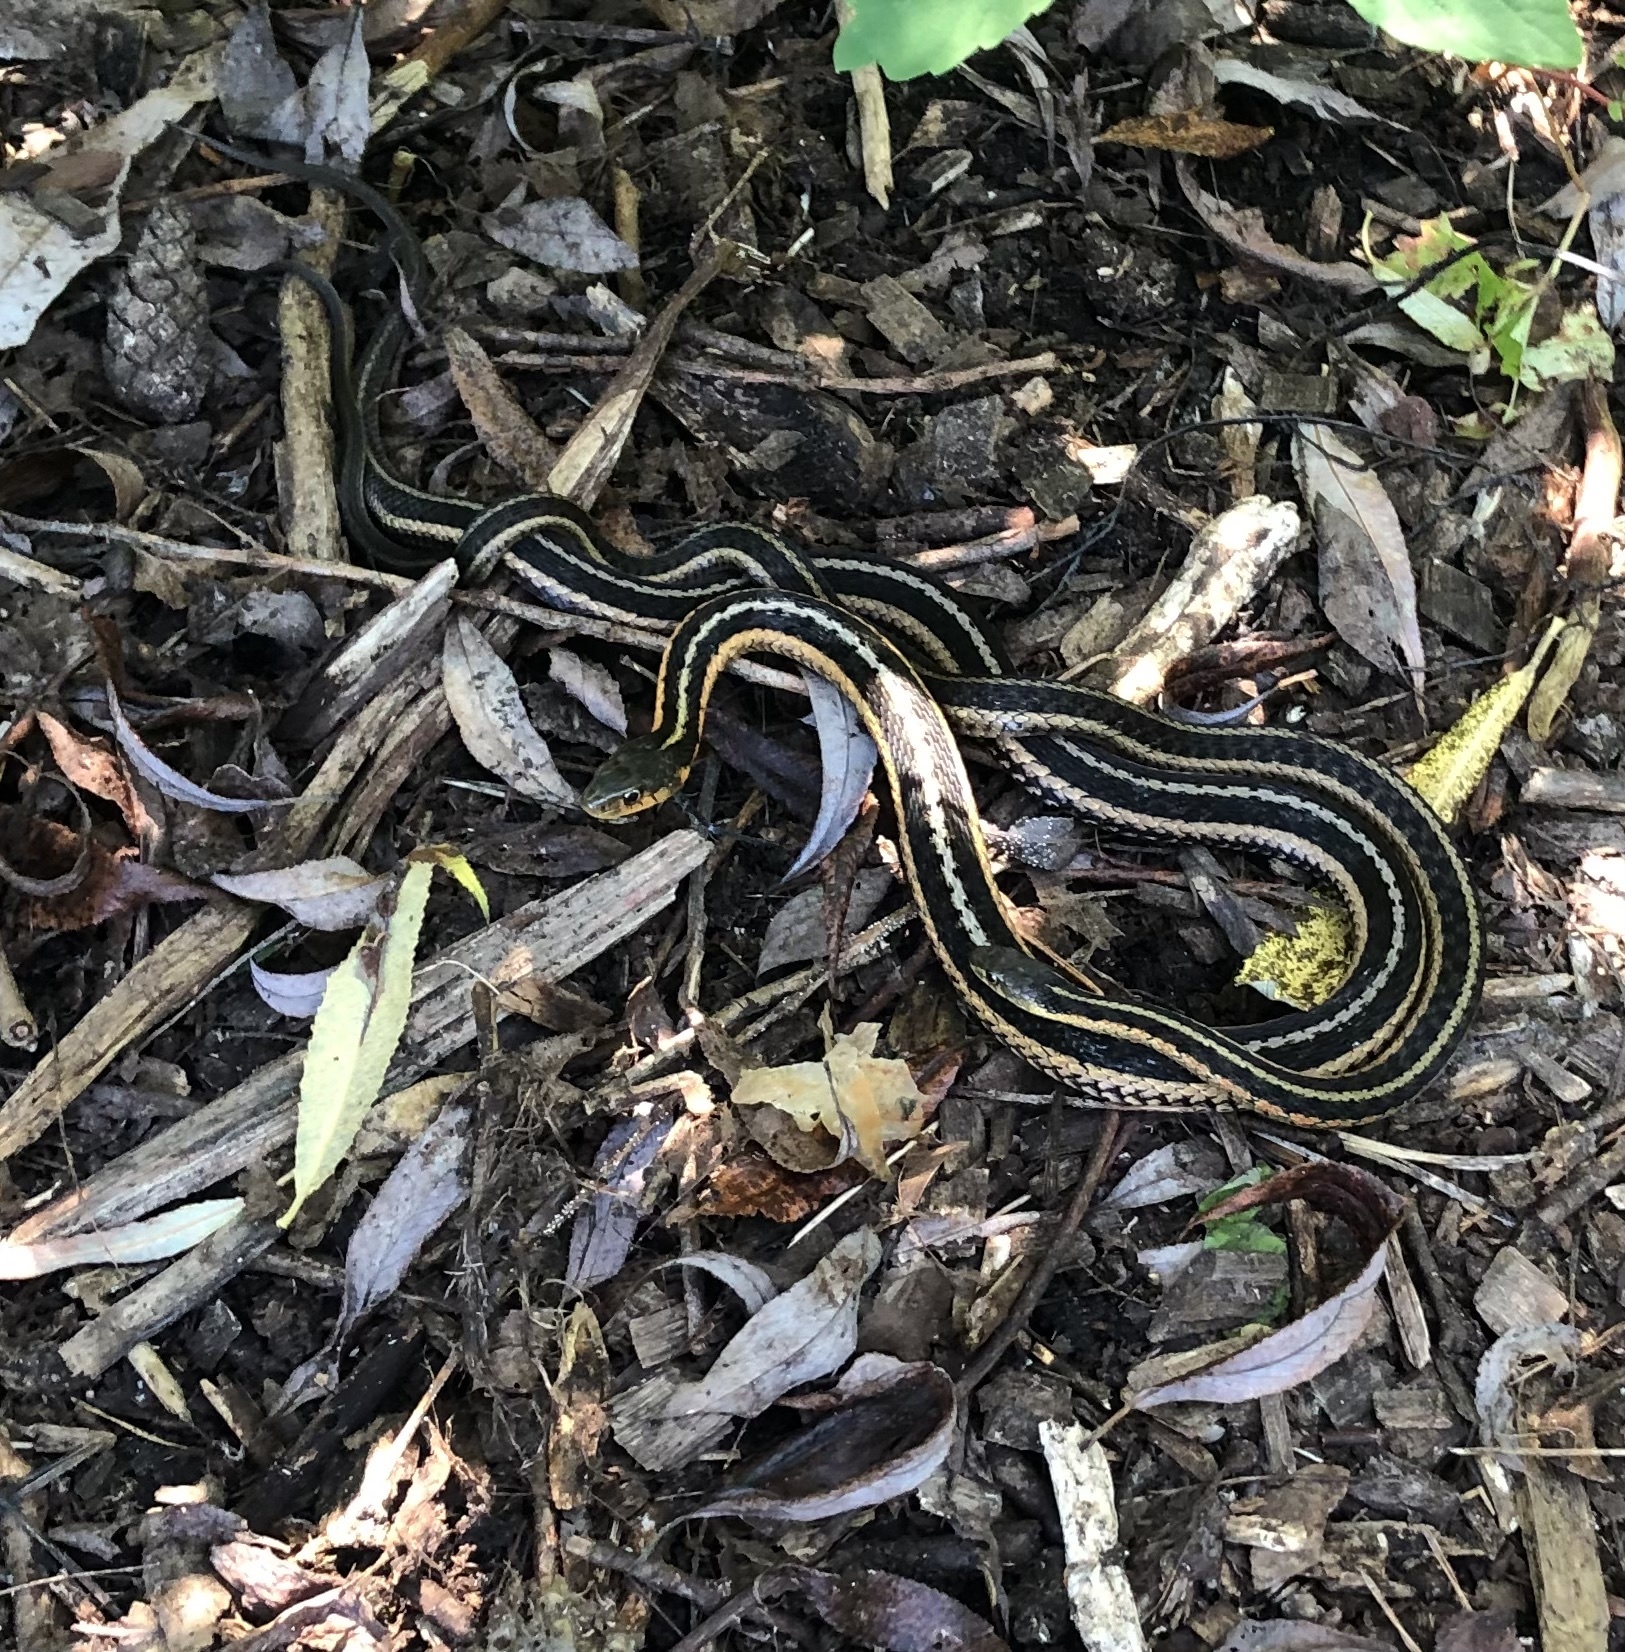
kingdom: Animalia
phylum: Chordata
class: Squamata
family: Colubridae
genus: Thamnophis
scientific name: Thamnophis sirtalis
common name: Common garter snake
